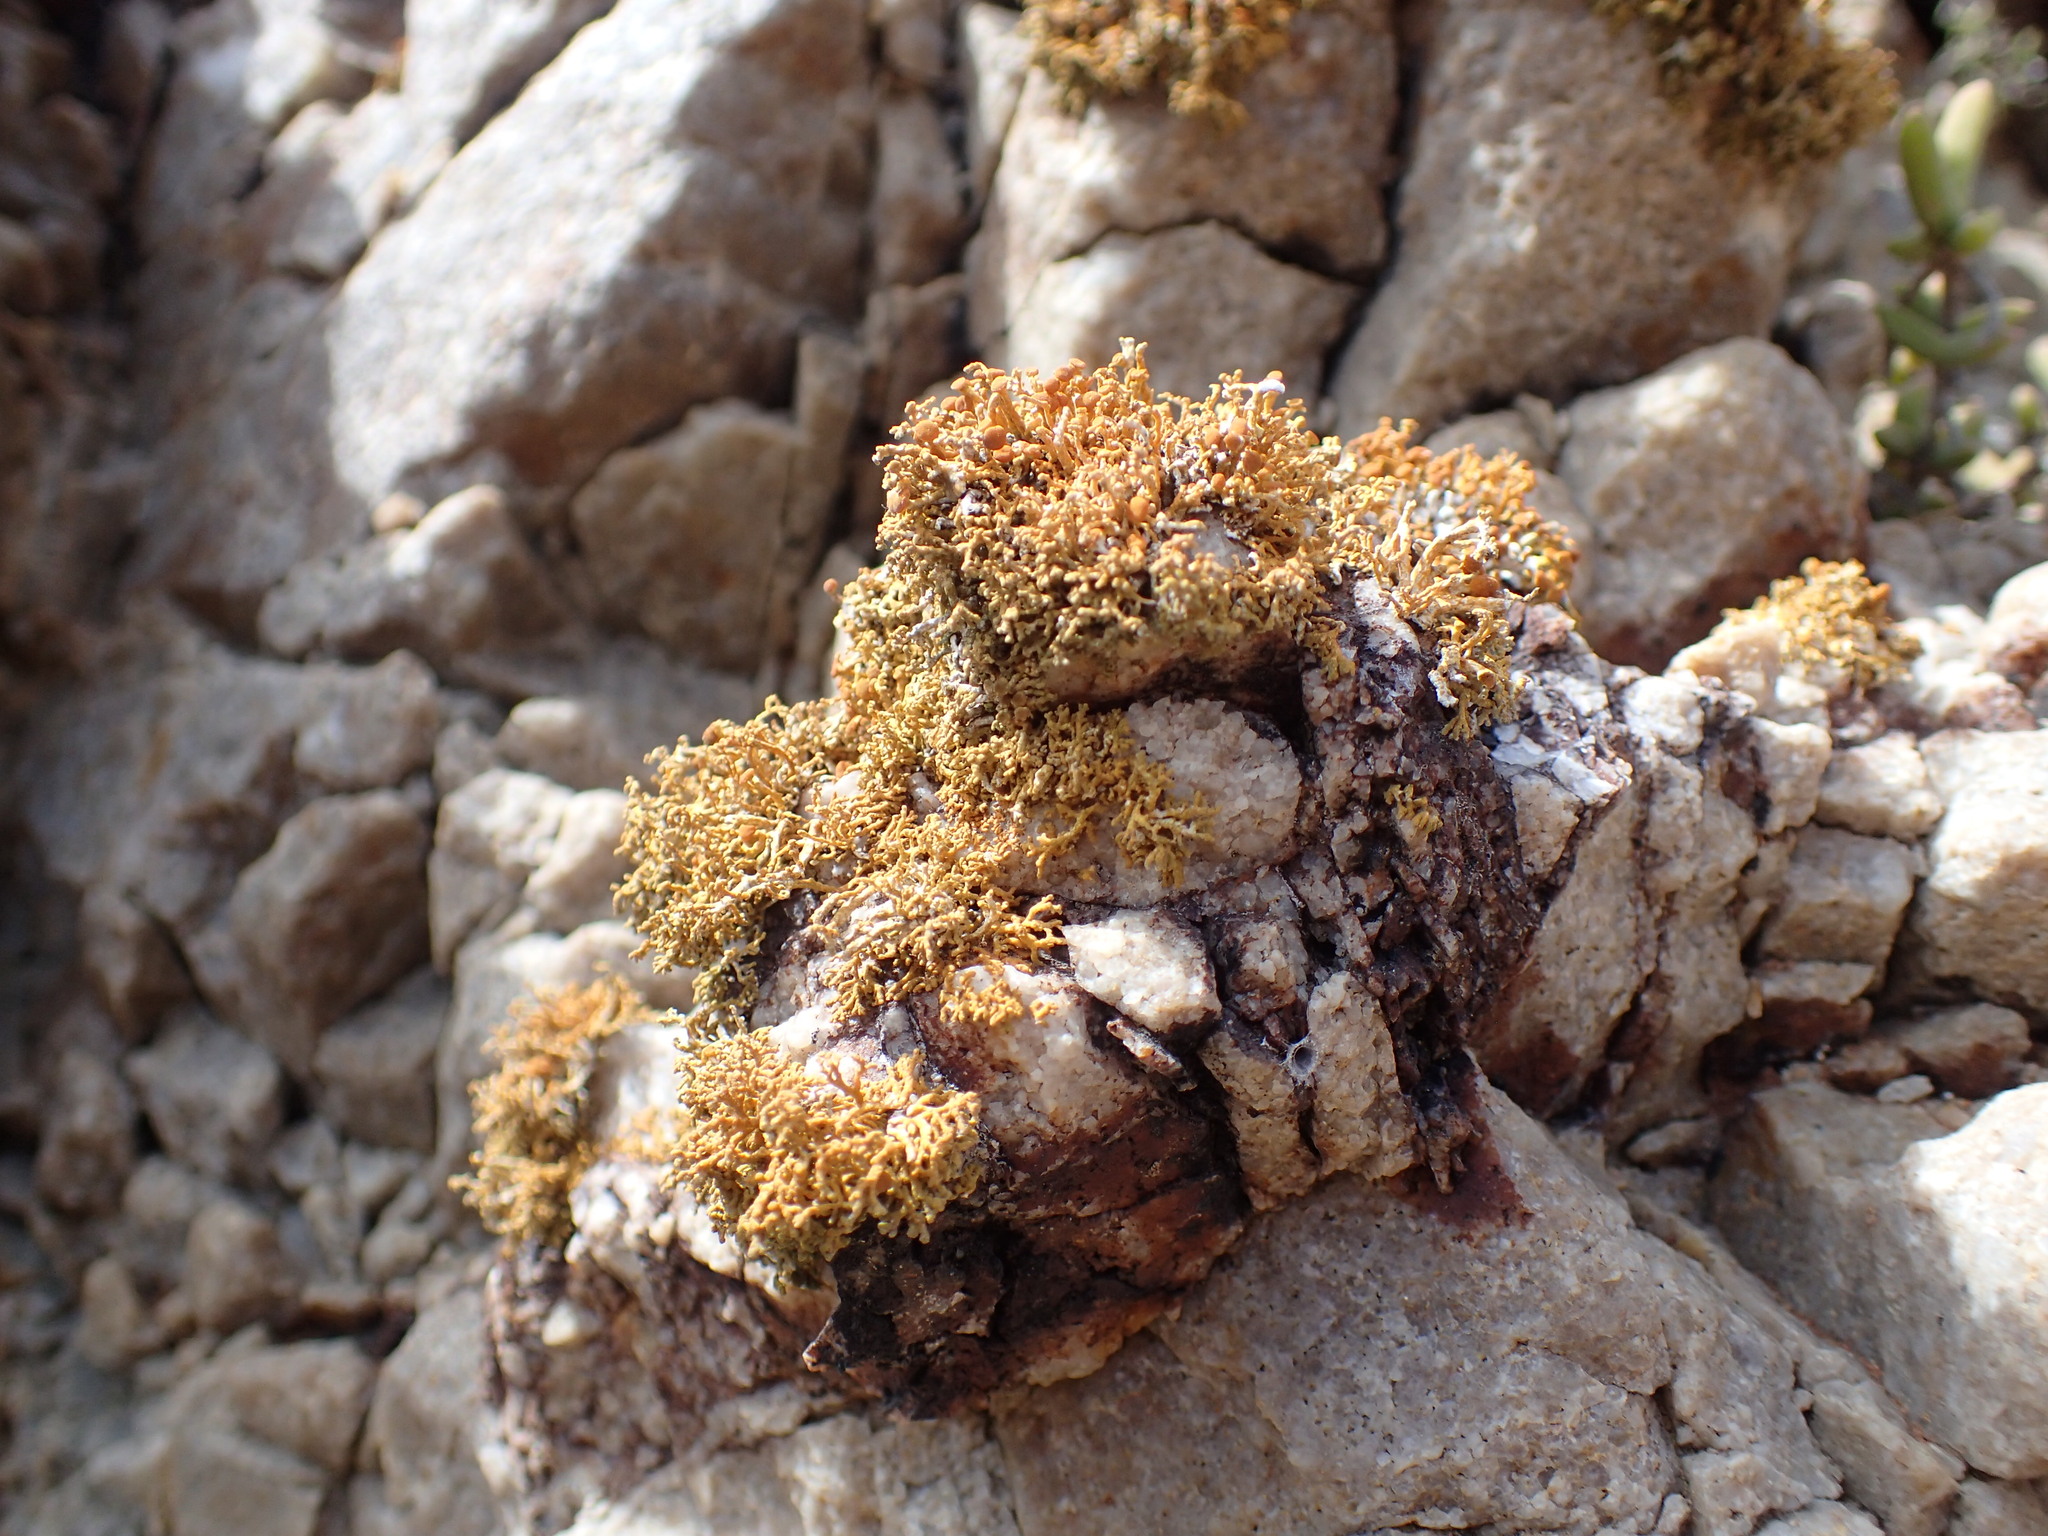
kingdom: Fungi
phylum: Ascomycota
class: Lecanoromycetes
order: Teloschistales
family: Teloschistaceae
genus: Teloschistopsis
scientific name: Teloschistopsis bonae-spei
